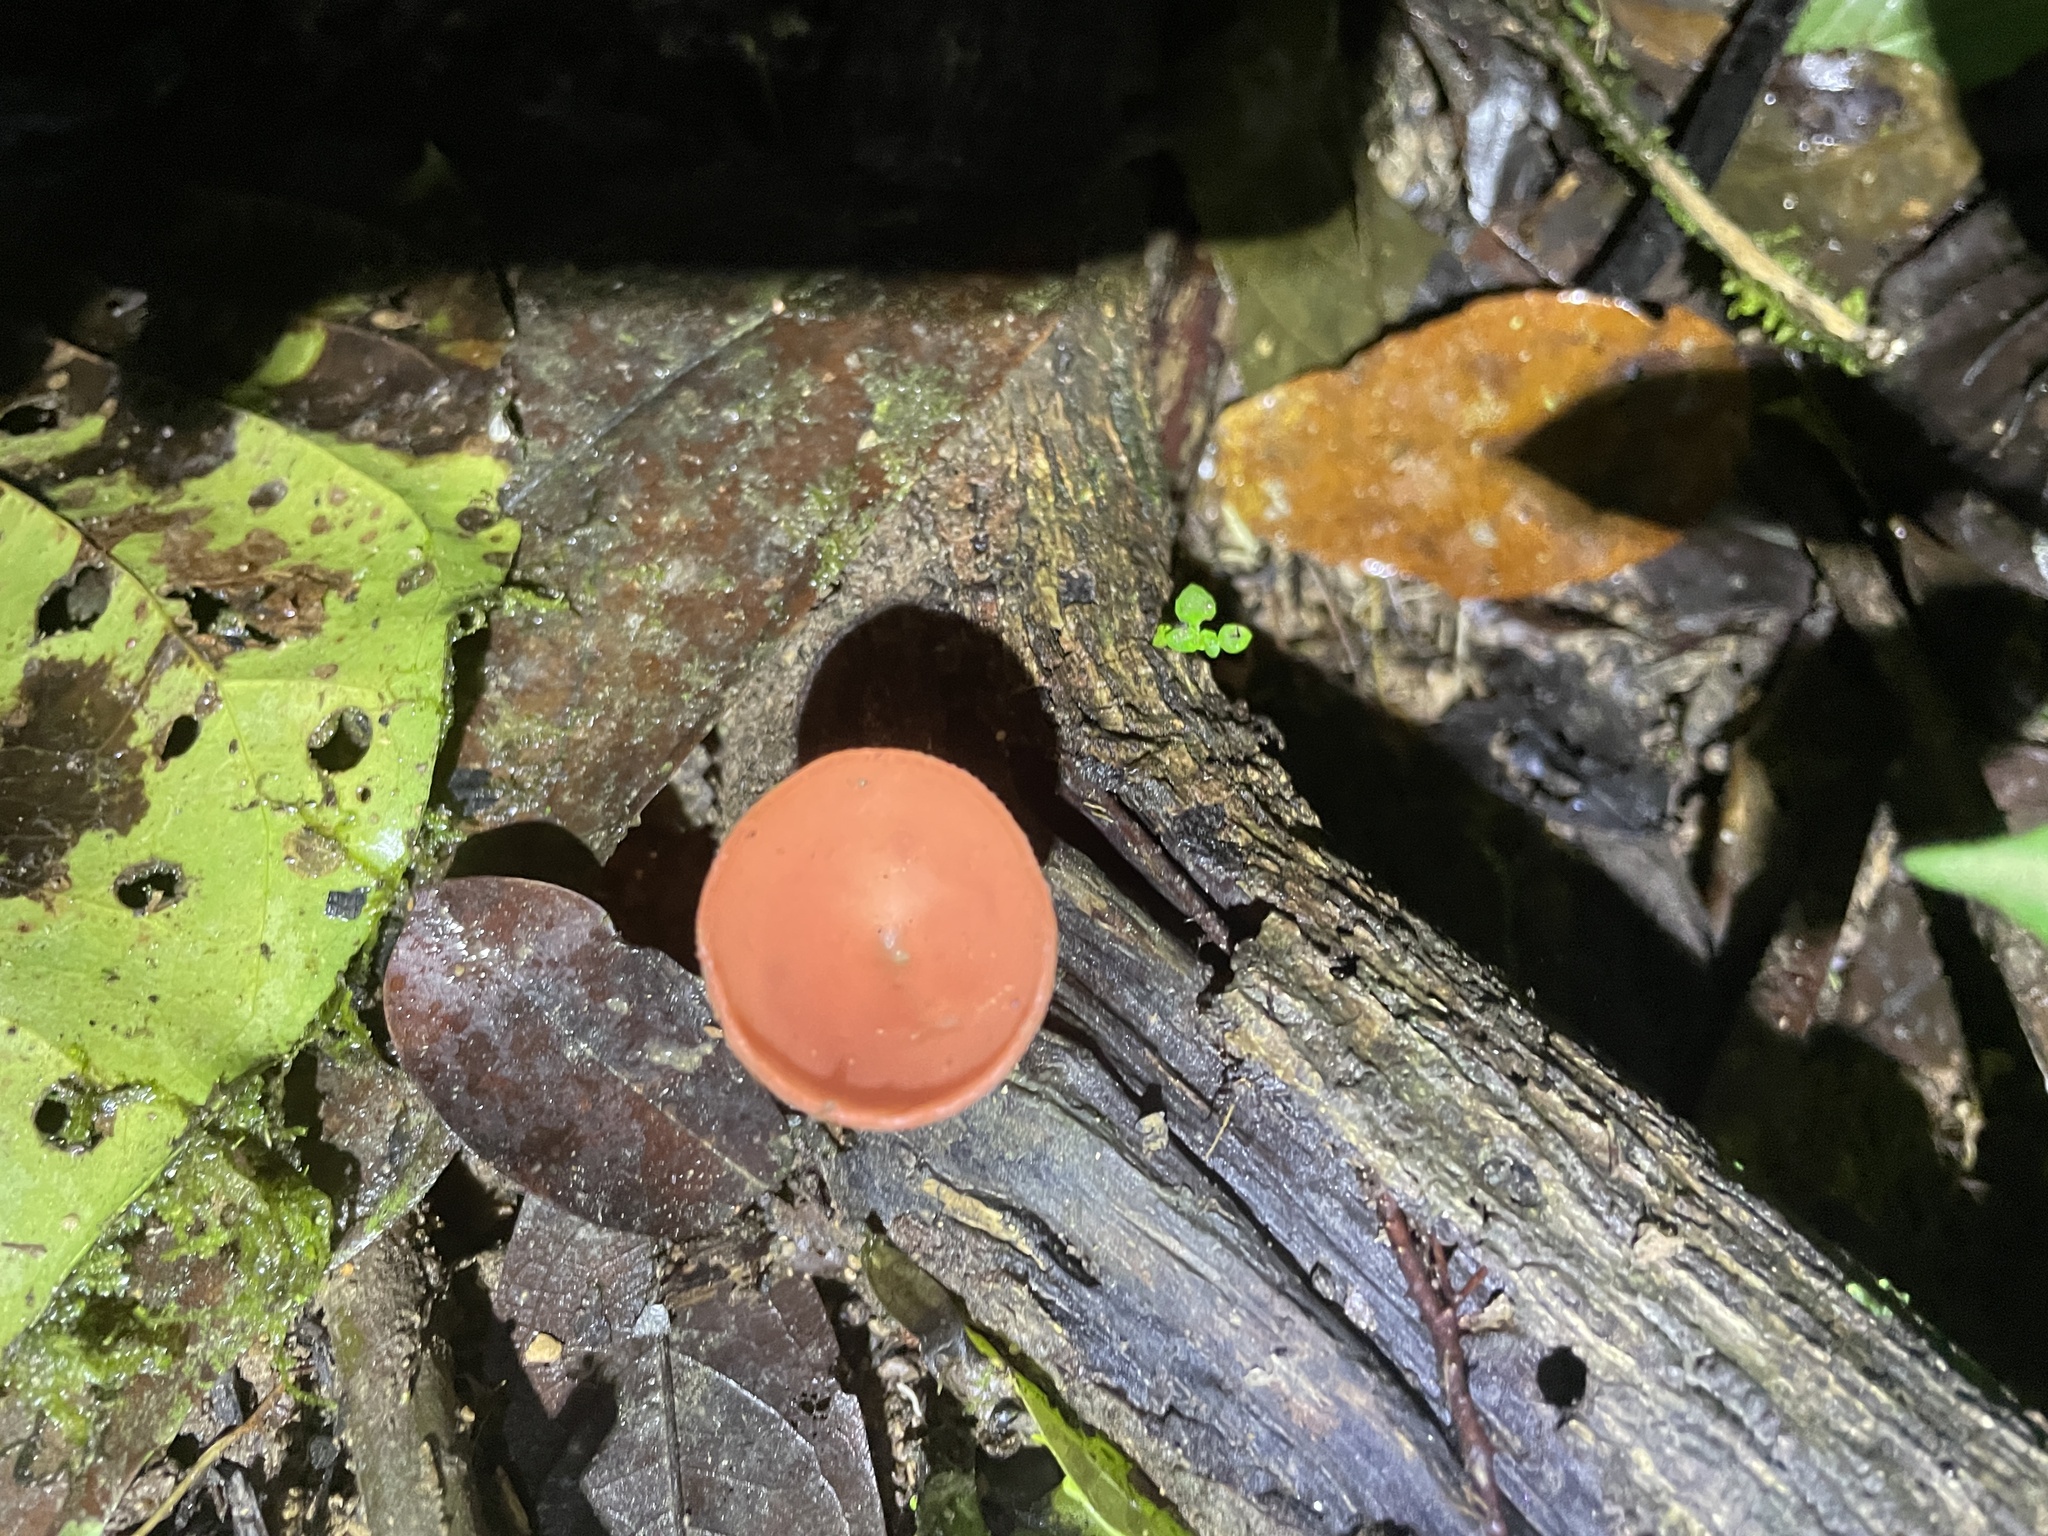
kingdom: Fungi
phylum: Ascomycota
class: Pezizomycetes
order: Pezizales
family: Sarcoscyphaceae
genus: Cookeina
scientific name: Cookeina speciosa
